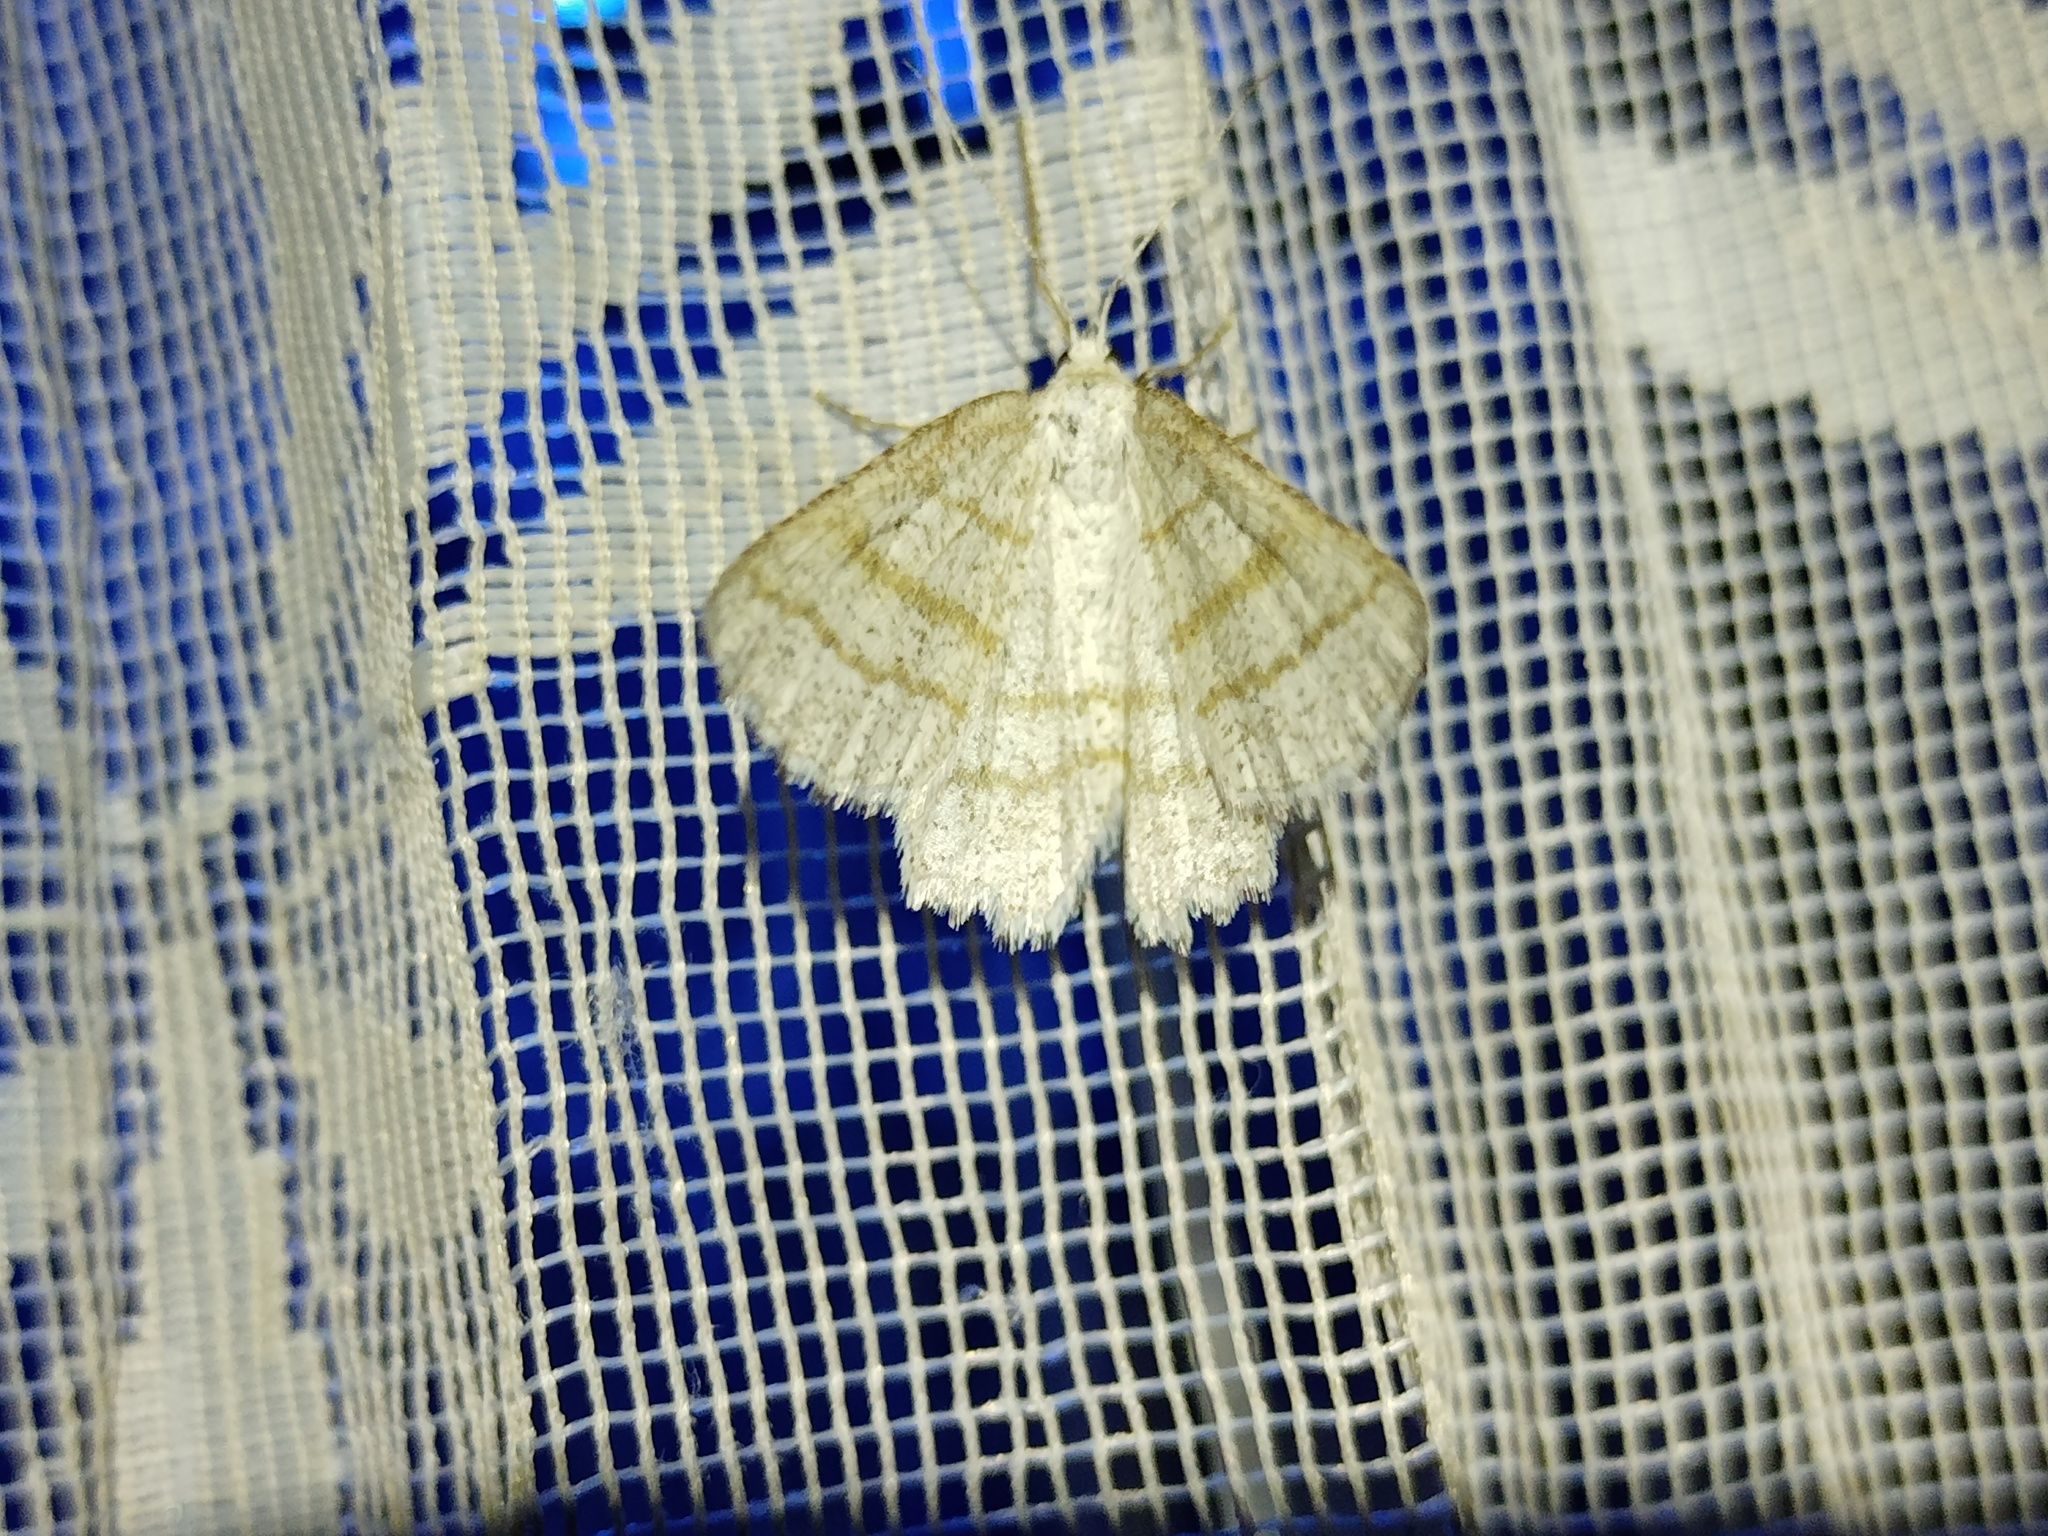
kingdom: Animalia
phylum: Arthropoda
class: Insecta
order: Lepidoptera
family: Geometridae
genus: Perconia
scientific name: Perconia strigillaria
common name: Grass wave
